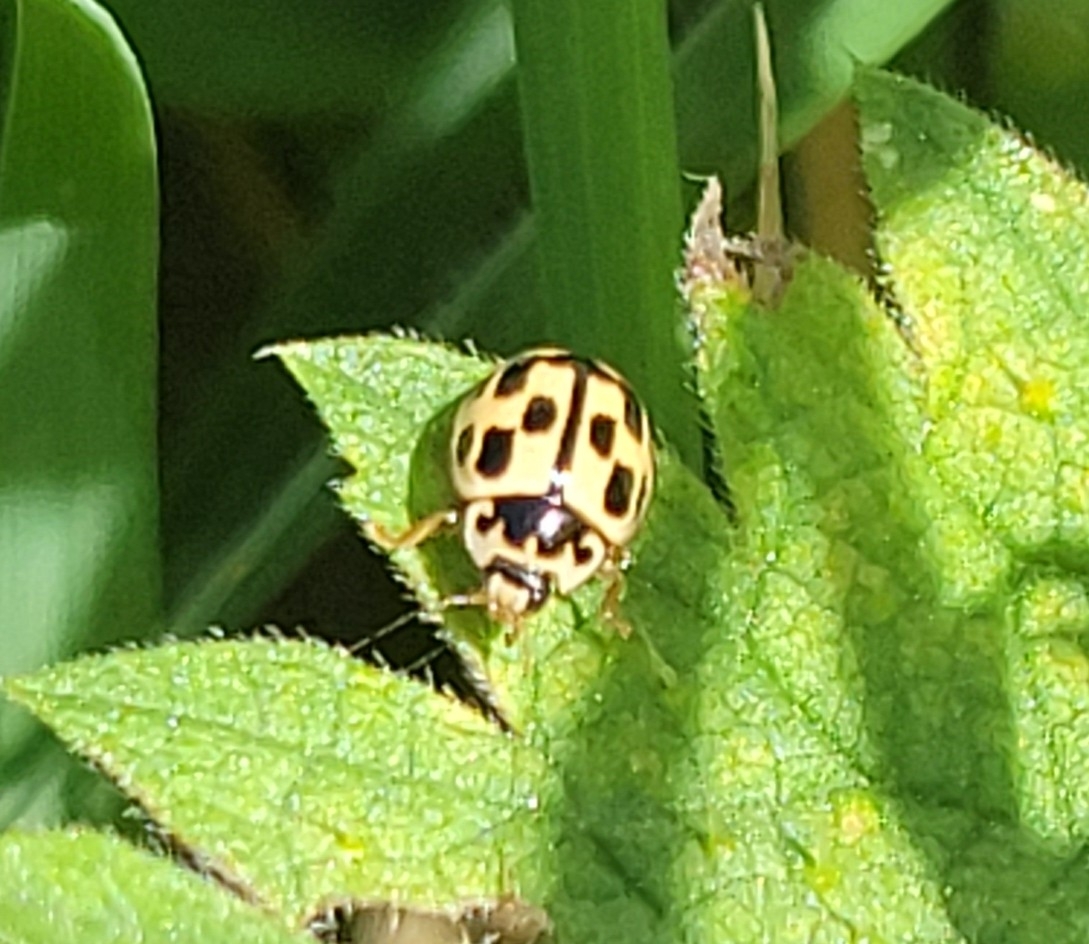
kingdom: Animalia
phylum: Arthropoda
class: Insecta
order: Coleoptera
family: Coccinellidae
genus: Propylaea
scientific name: Propylaea quatuordecimpunctata
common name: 14-spotted ladybird beetle
